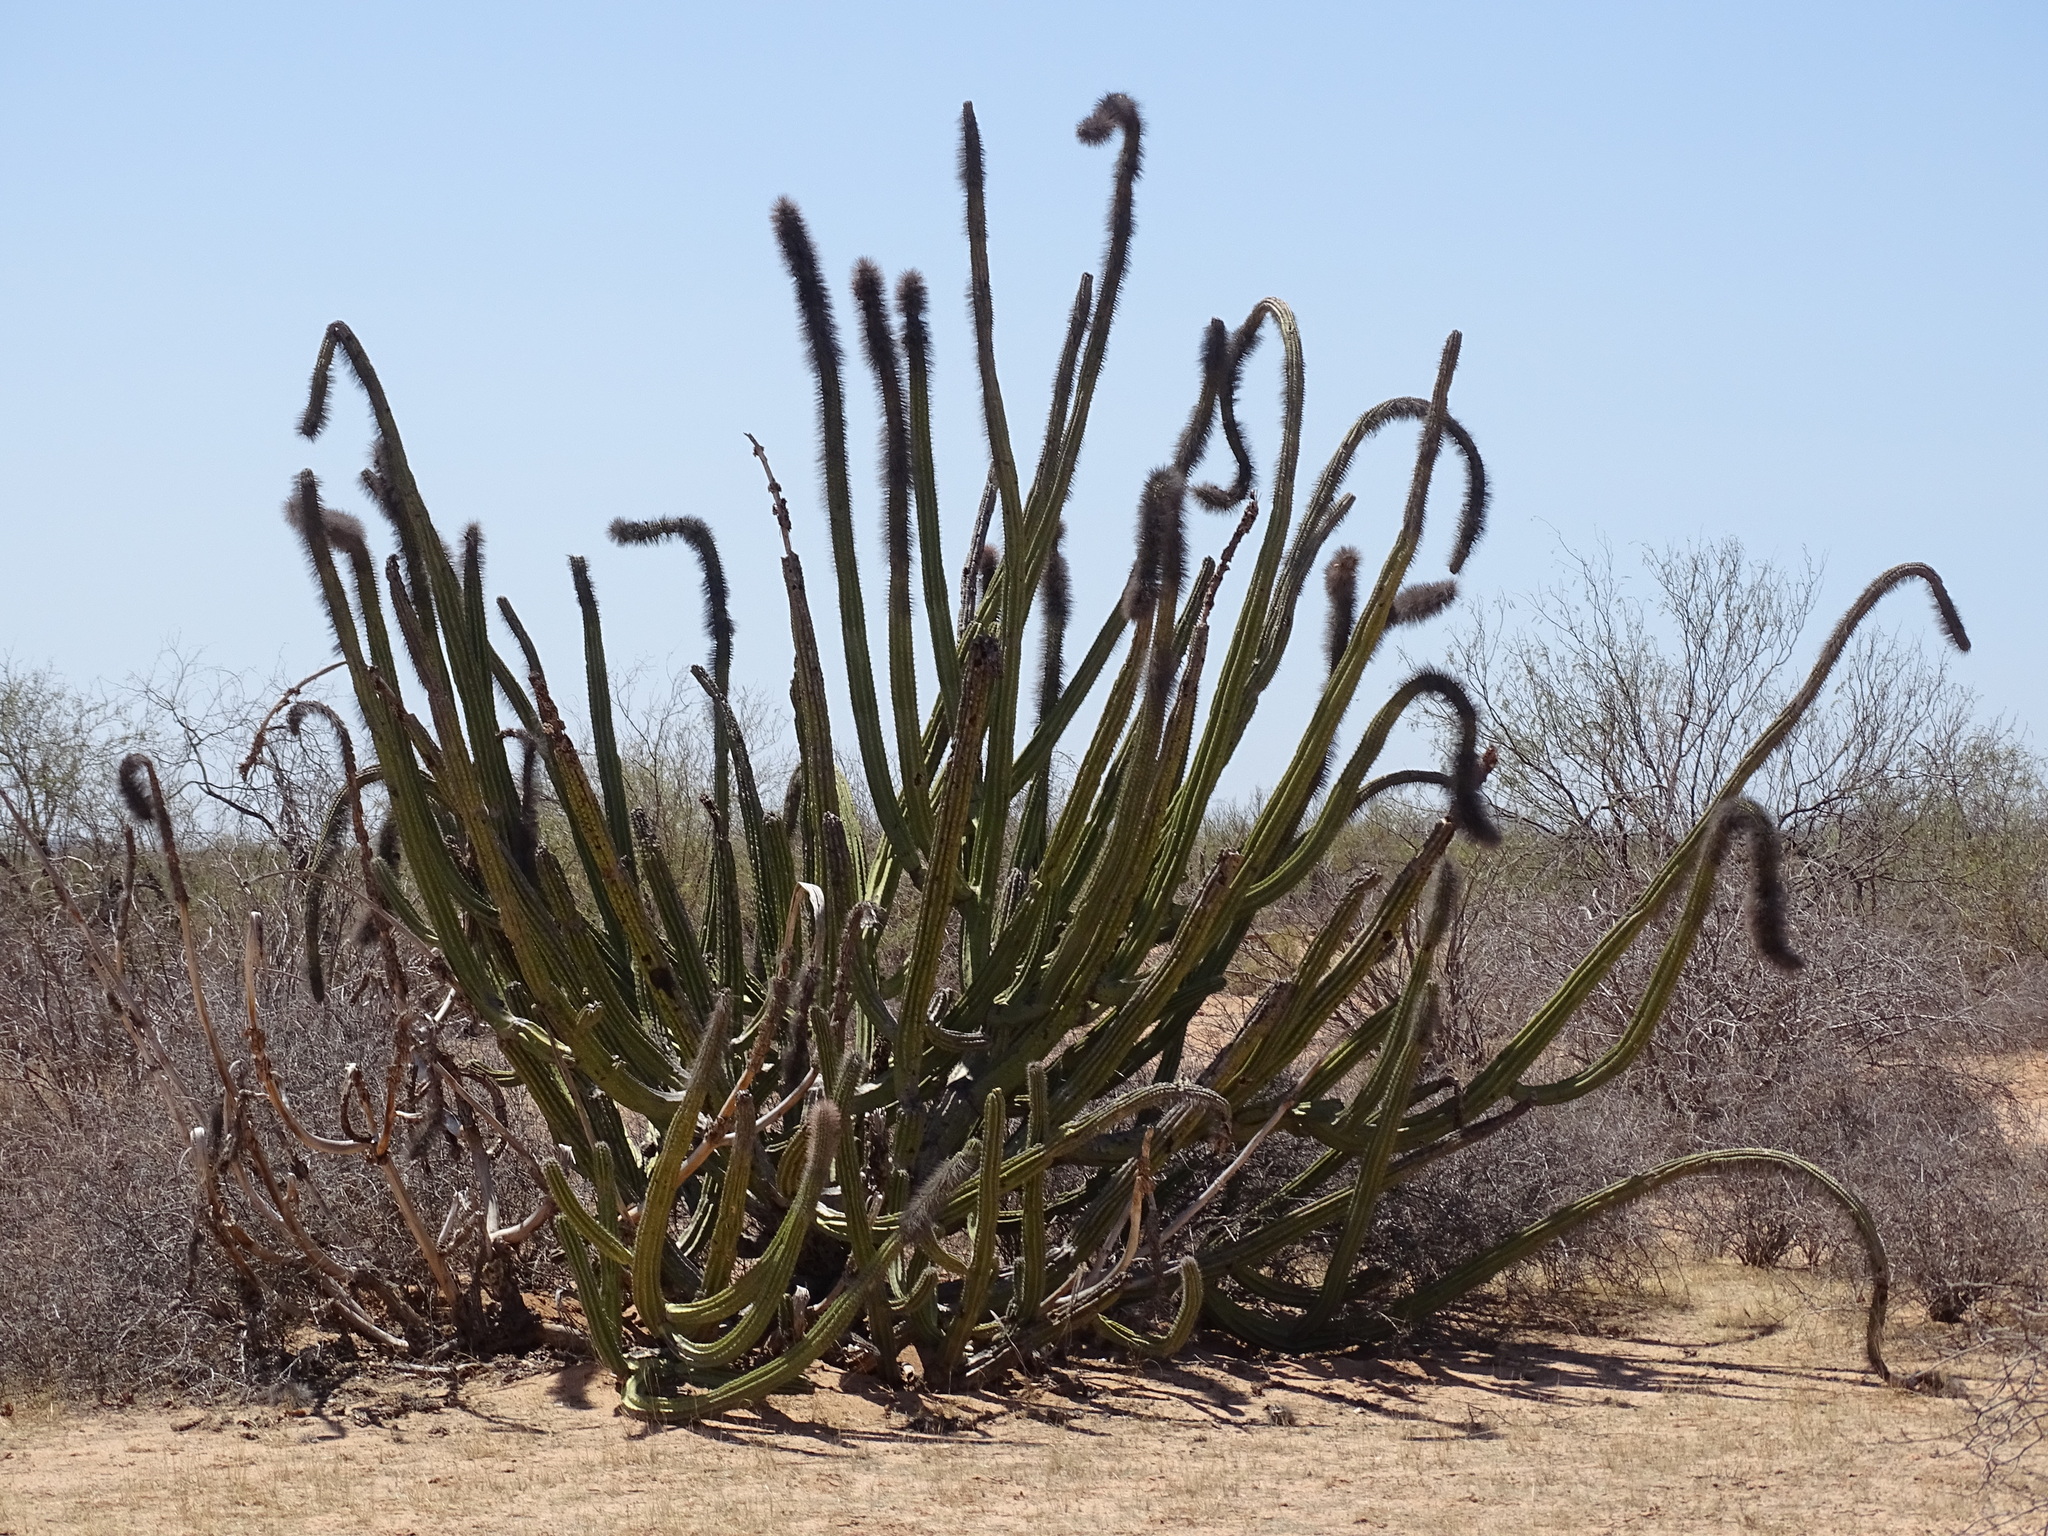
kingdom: Plantae
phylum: Tracheophyta
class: Magnoliopsida
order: Caryophyllales
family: Cactaceae
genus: Pachycereus
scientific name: Pachycereus schottii
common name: Senita cactus
